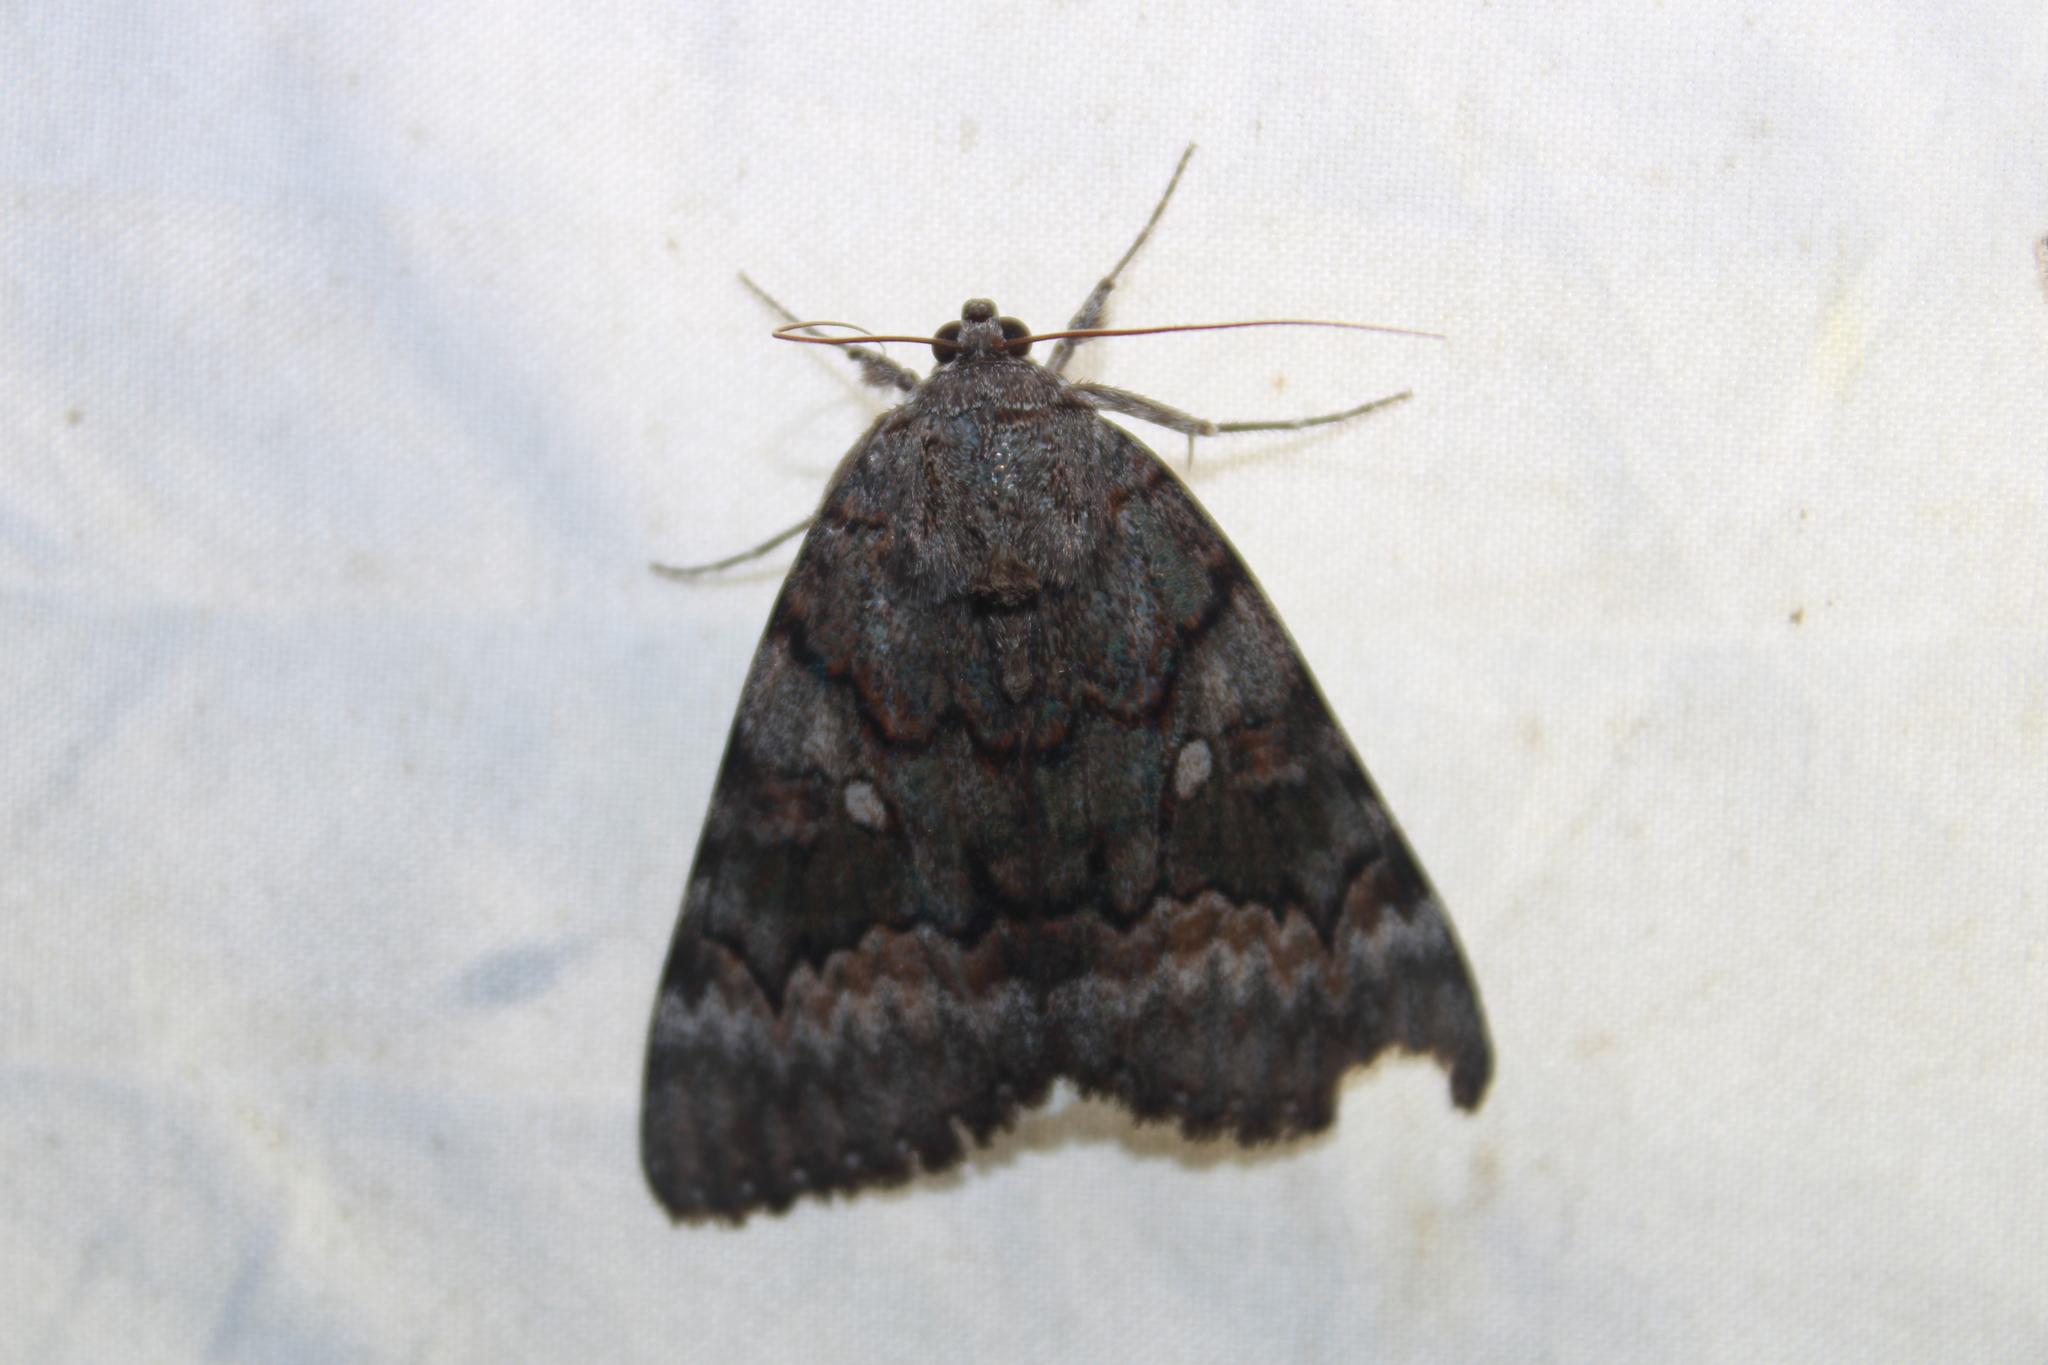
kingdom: Animalia
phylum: Arthropoda
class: Insecta
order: Lepidoptera
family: Erebidae
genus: Catocala
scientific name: Catocala epione
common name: Epione underwing
